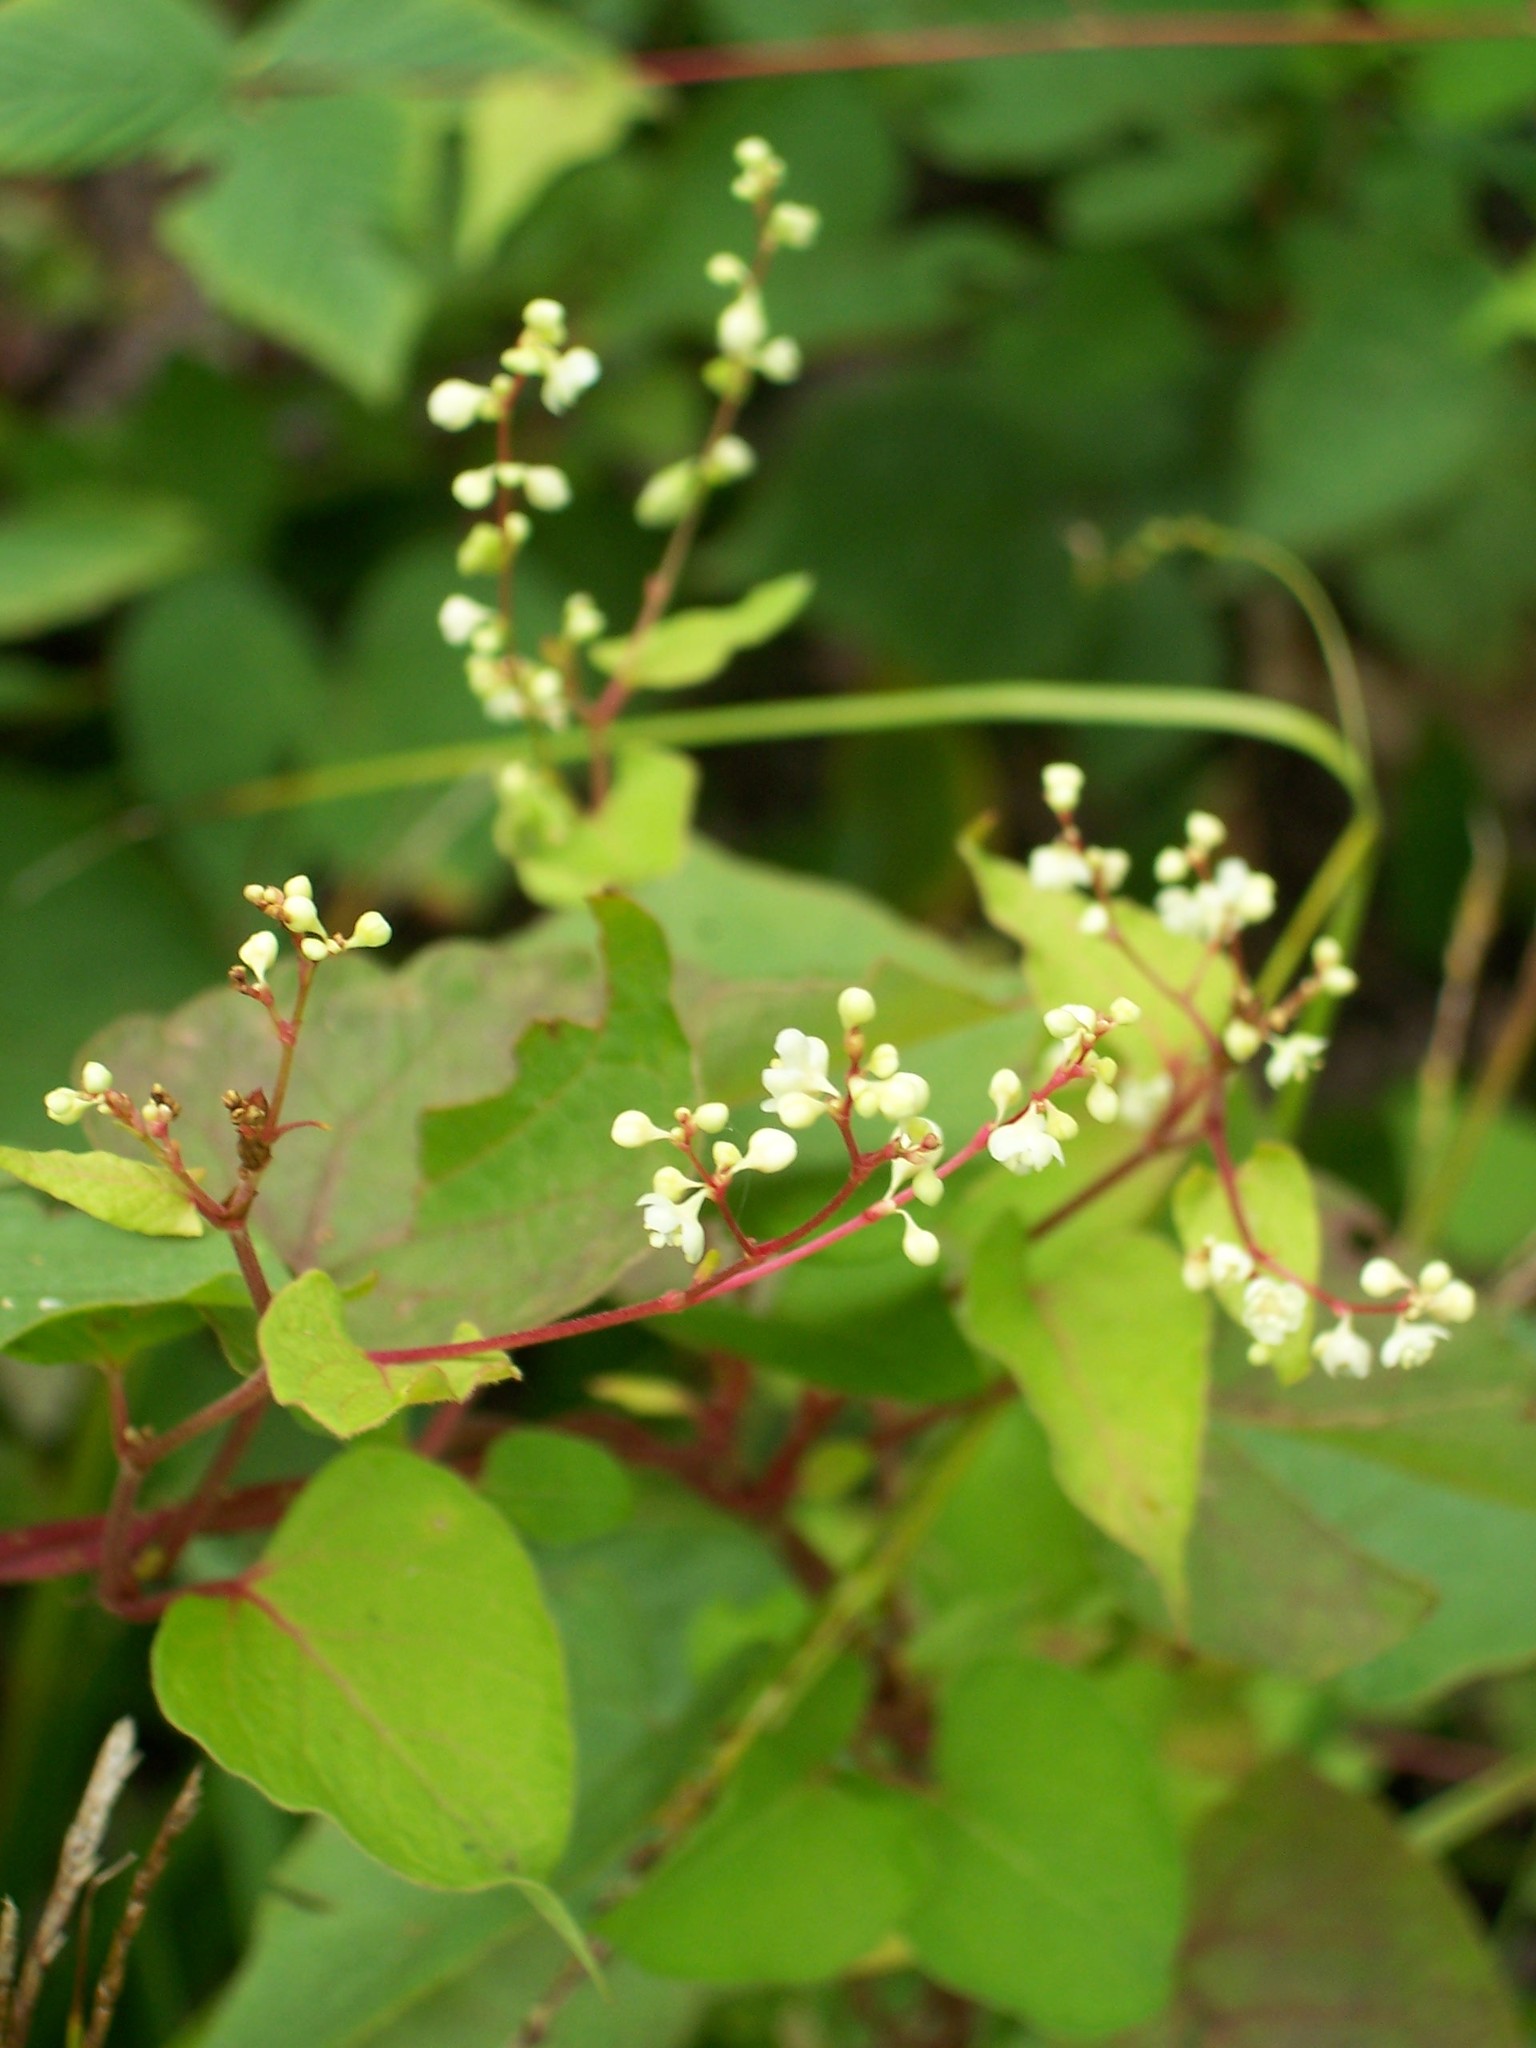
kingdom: Plantae
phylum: Tracheophyta
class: Magnoliopsida
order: Caryophyllales
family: Polygonaceae
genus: Fallopia
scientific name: Fallopia scandens
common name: Climbing false buckwheat
